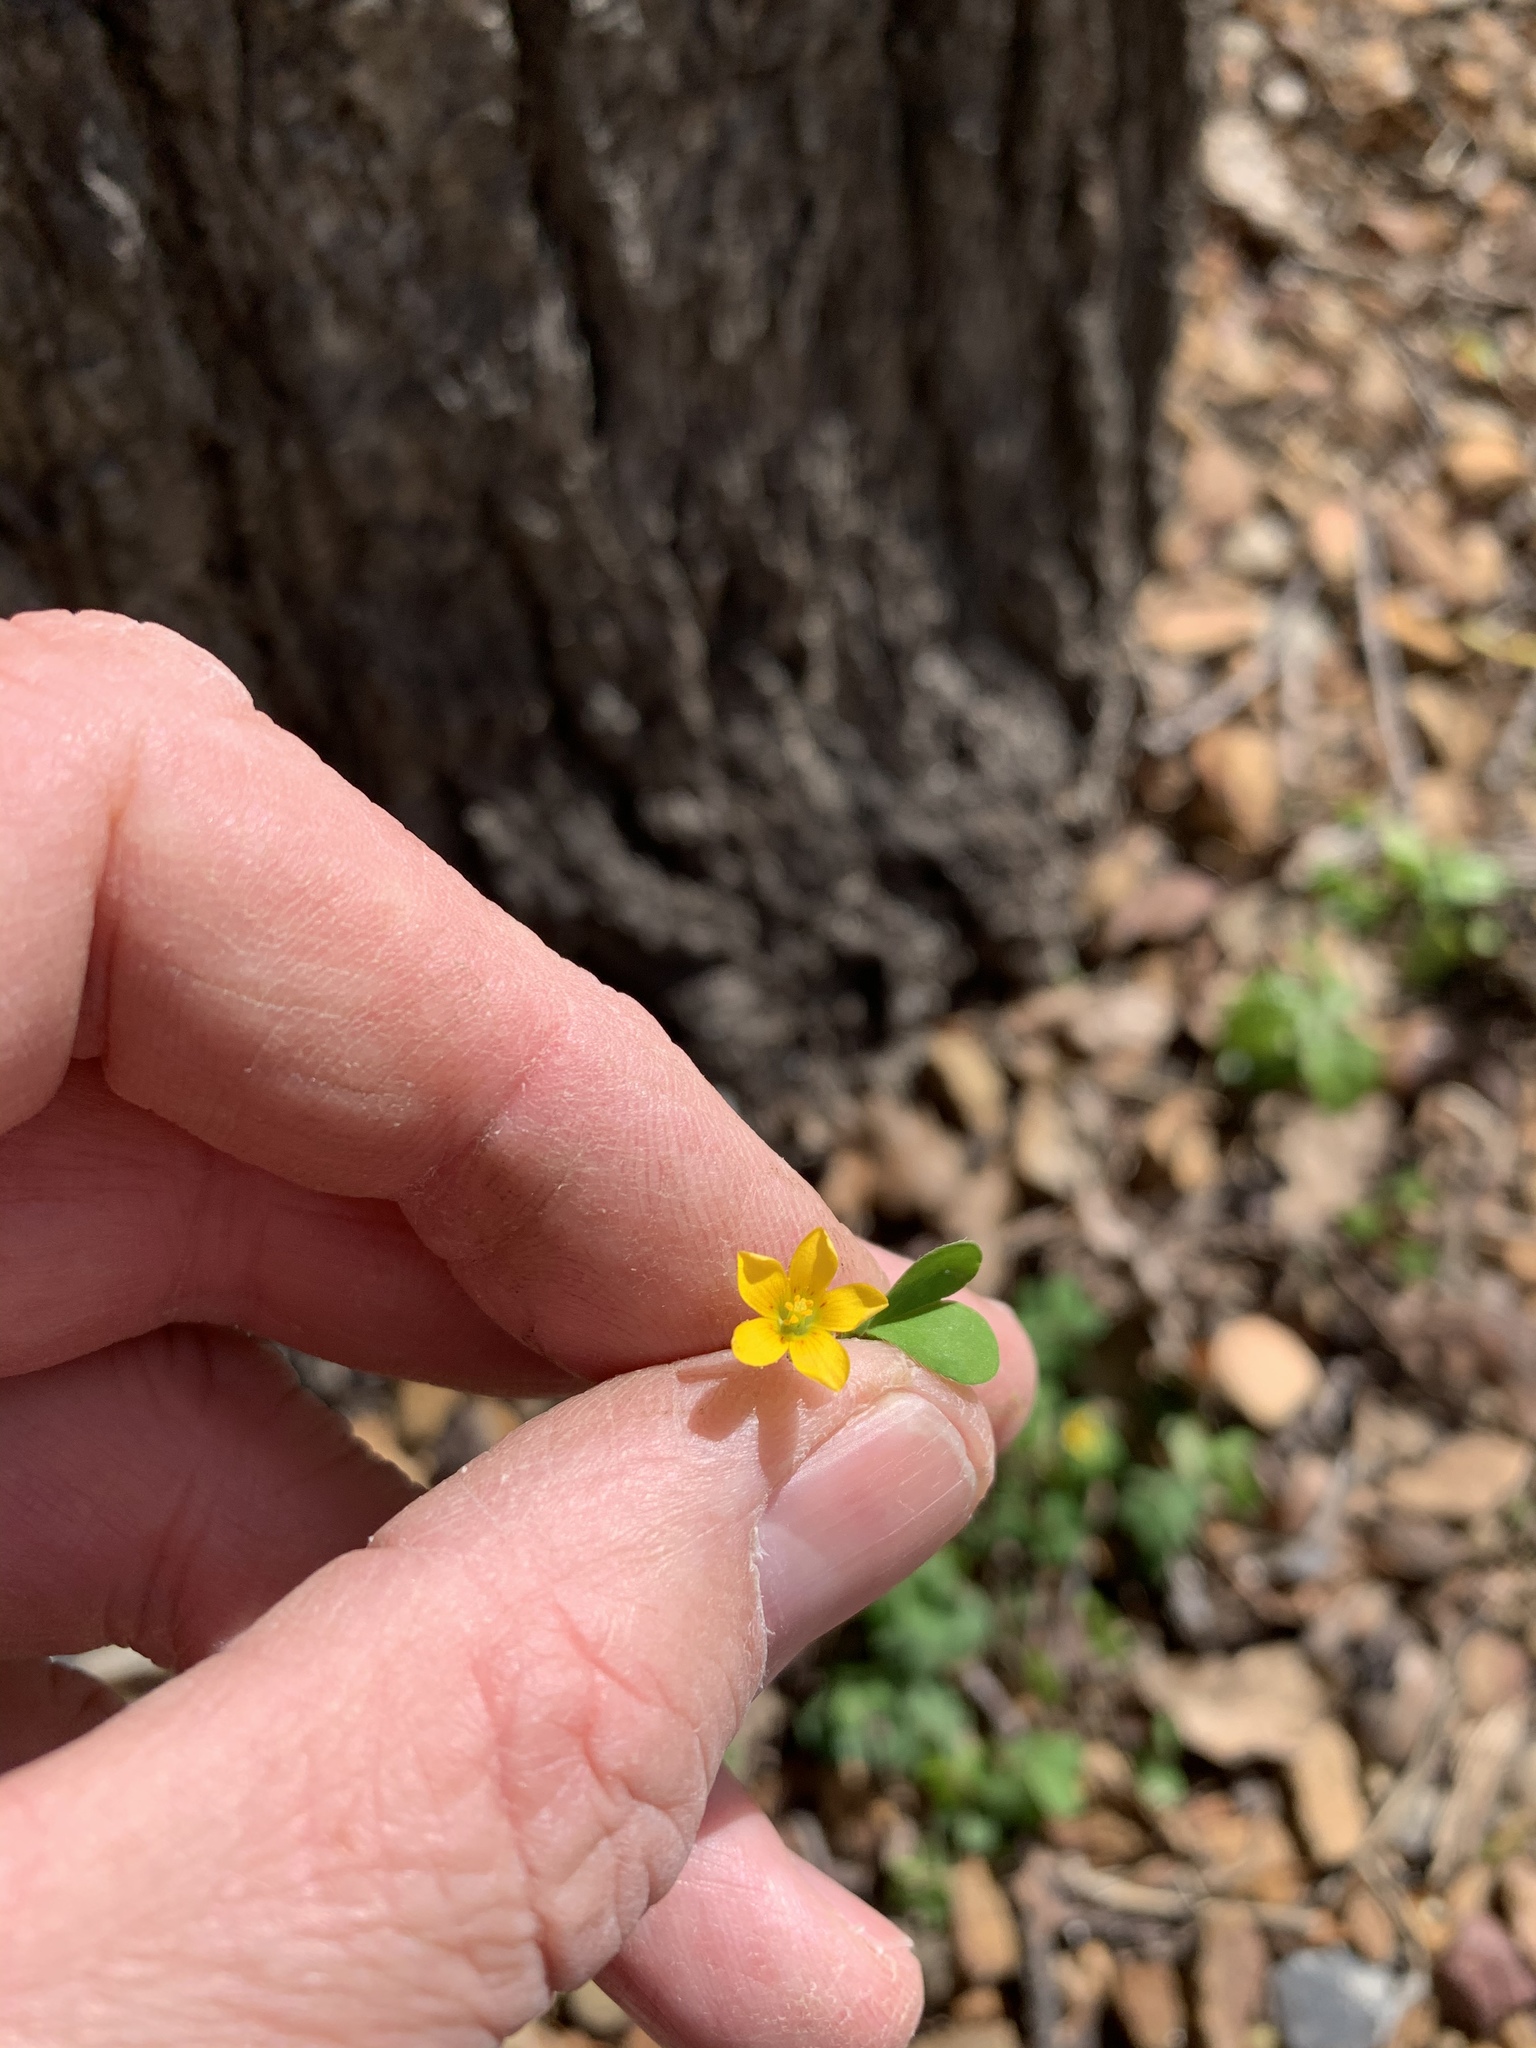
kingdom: Plantae
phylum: Tracheophyta
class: Magnoliopsida
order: Oxalidales
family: Oxalidaceae
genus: Oxalis
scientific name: Oxalis corniculata
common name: Procumbent yellow-sorrel
